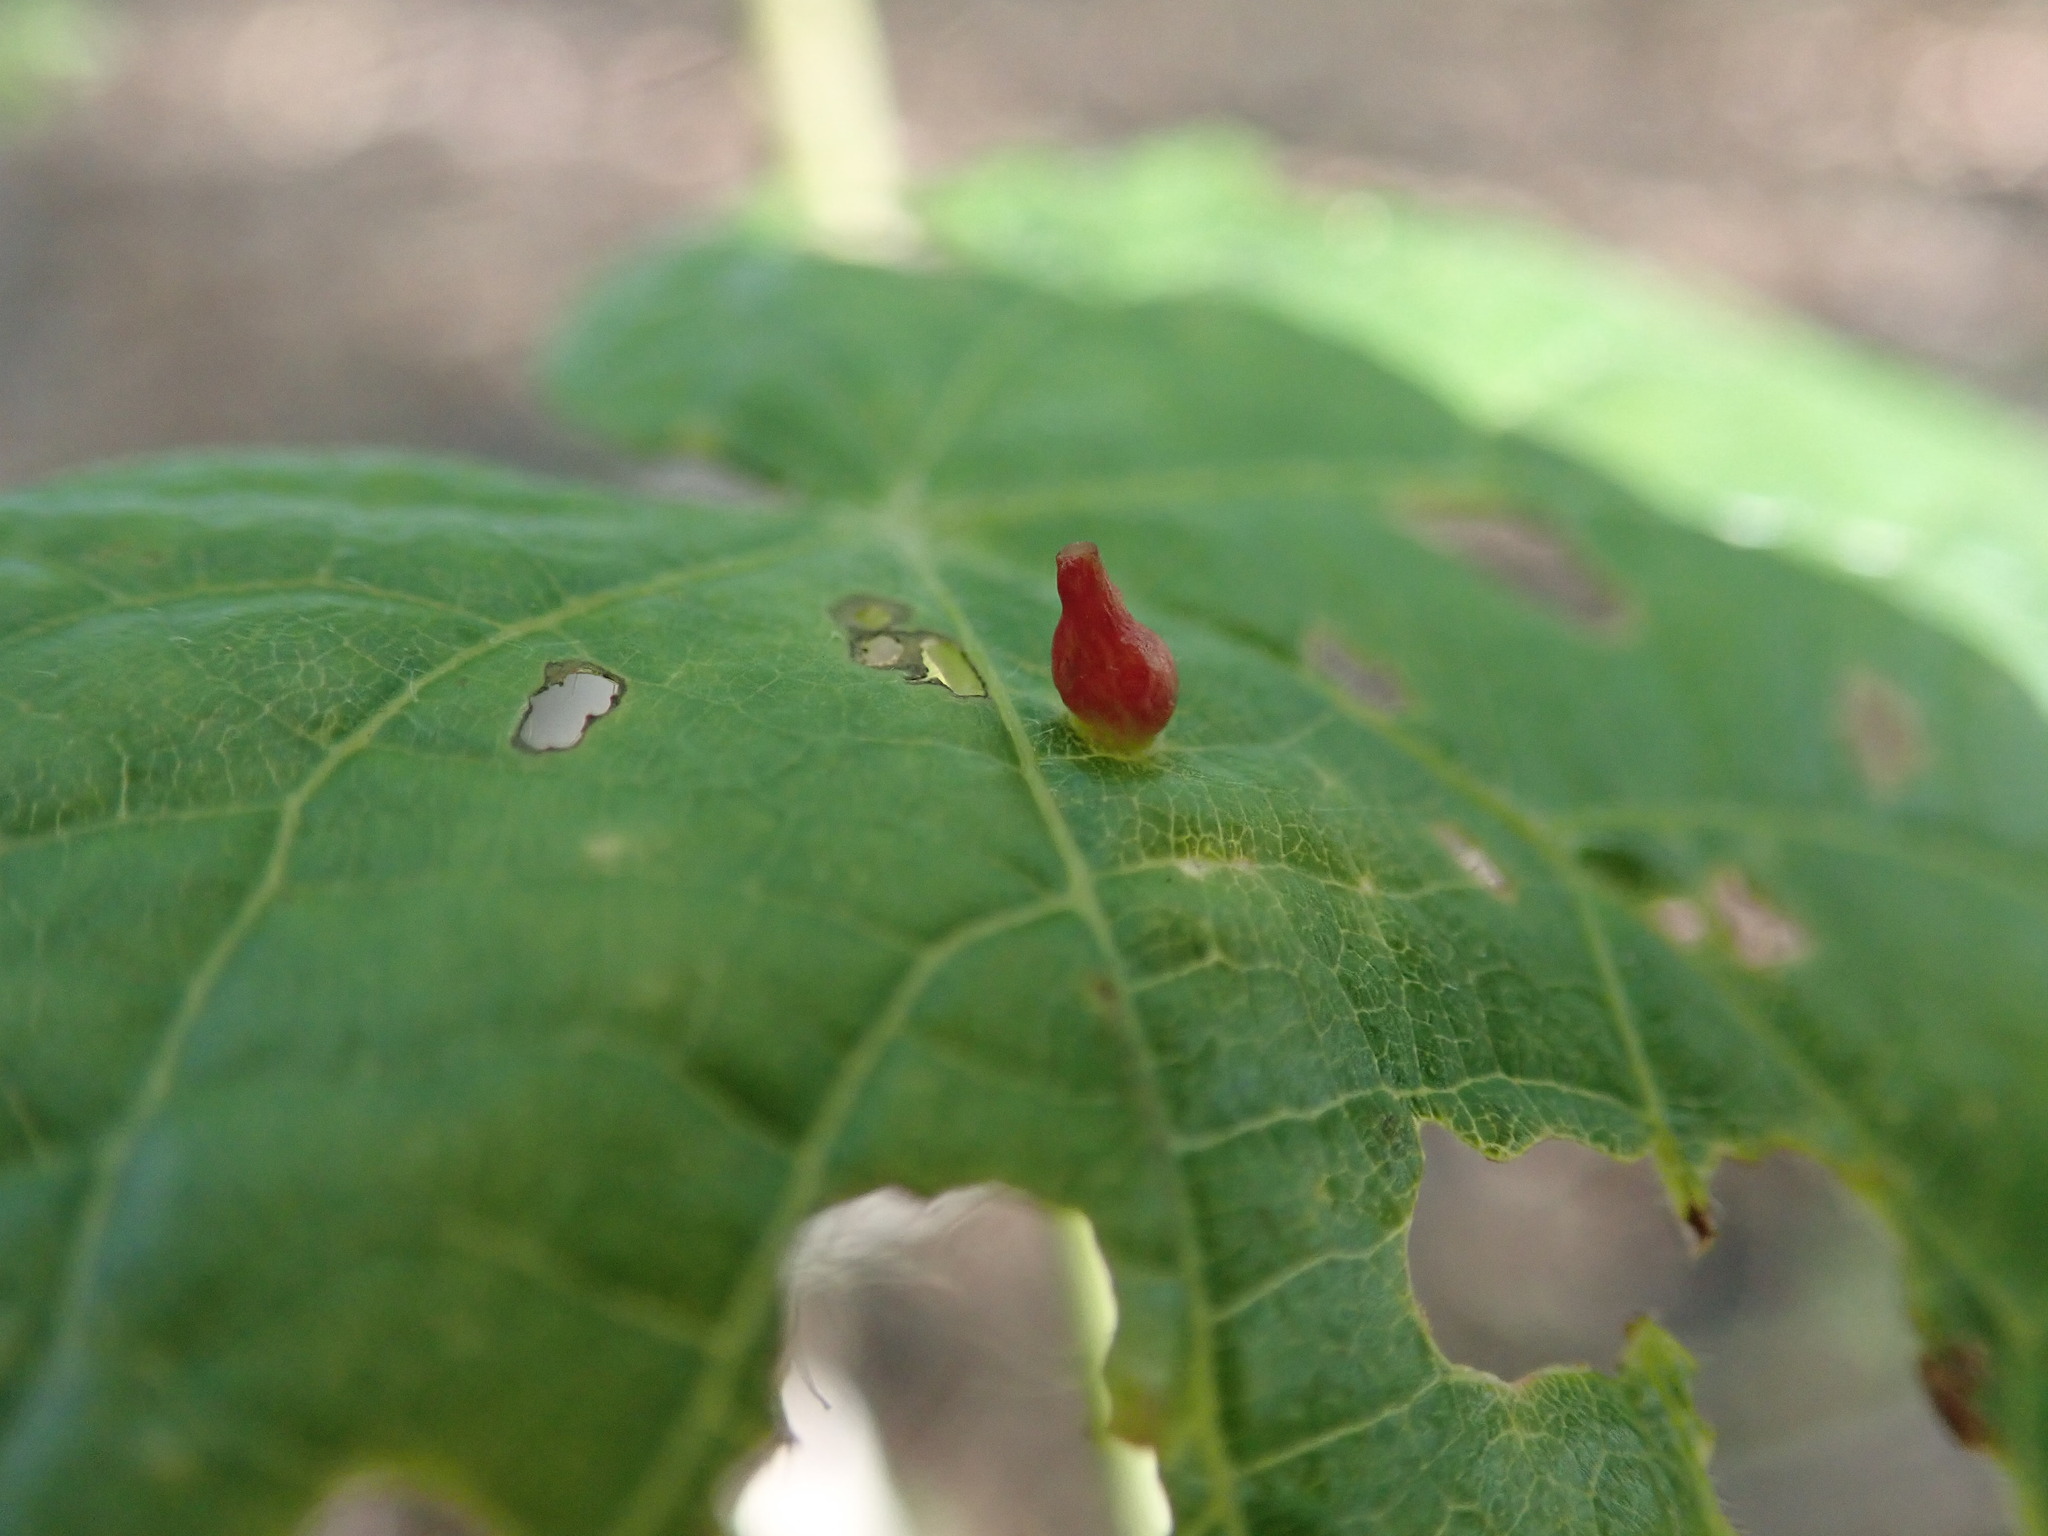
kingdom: Animalia
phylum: Arthropoda
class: Arachnida
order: Trombidiformes
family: Eriophyidae
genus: Eriophyes
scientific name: Eriophyes tiliae
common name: Red nail gall mite
